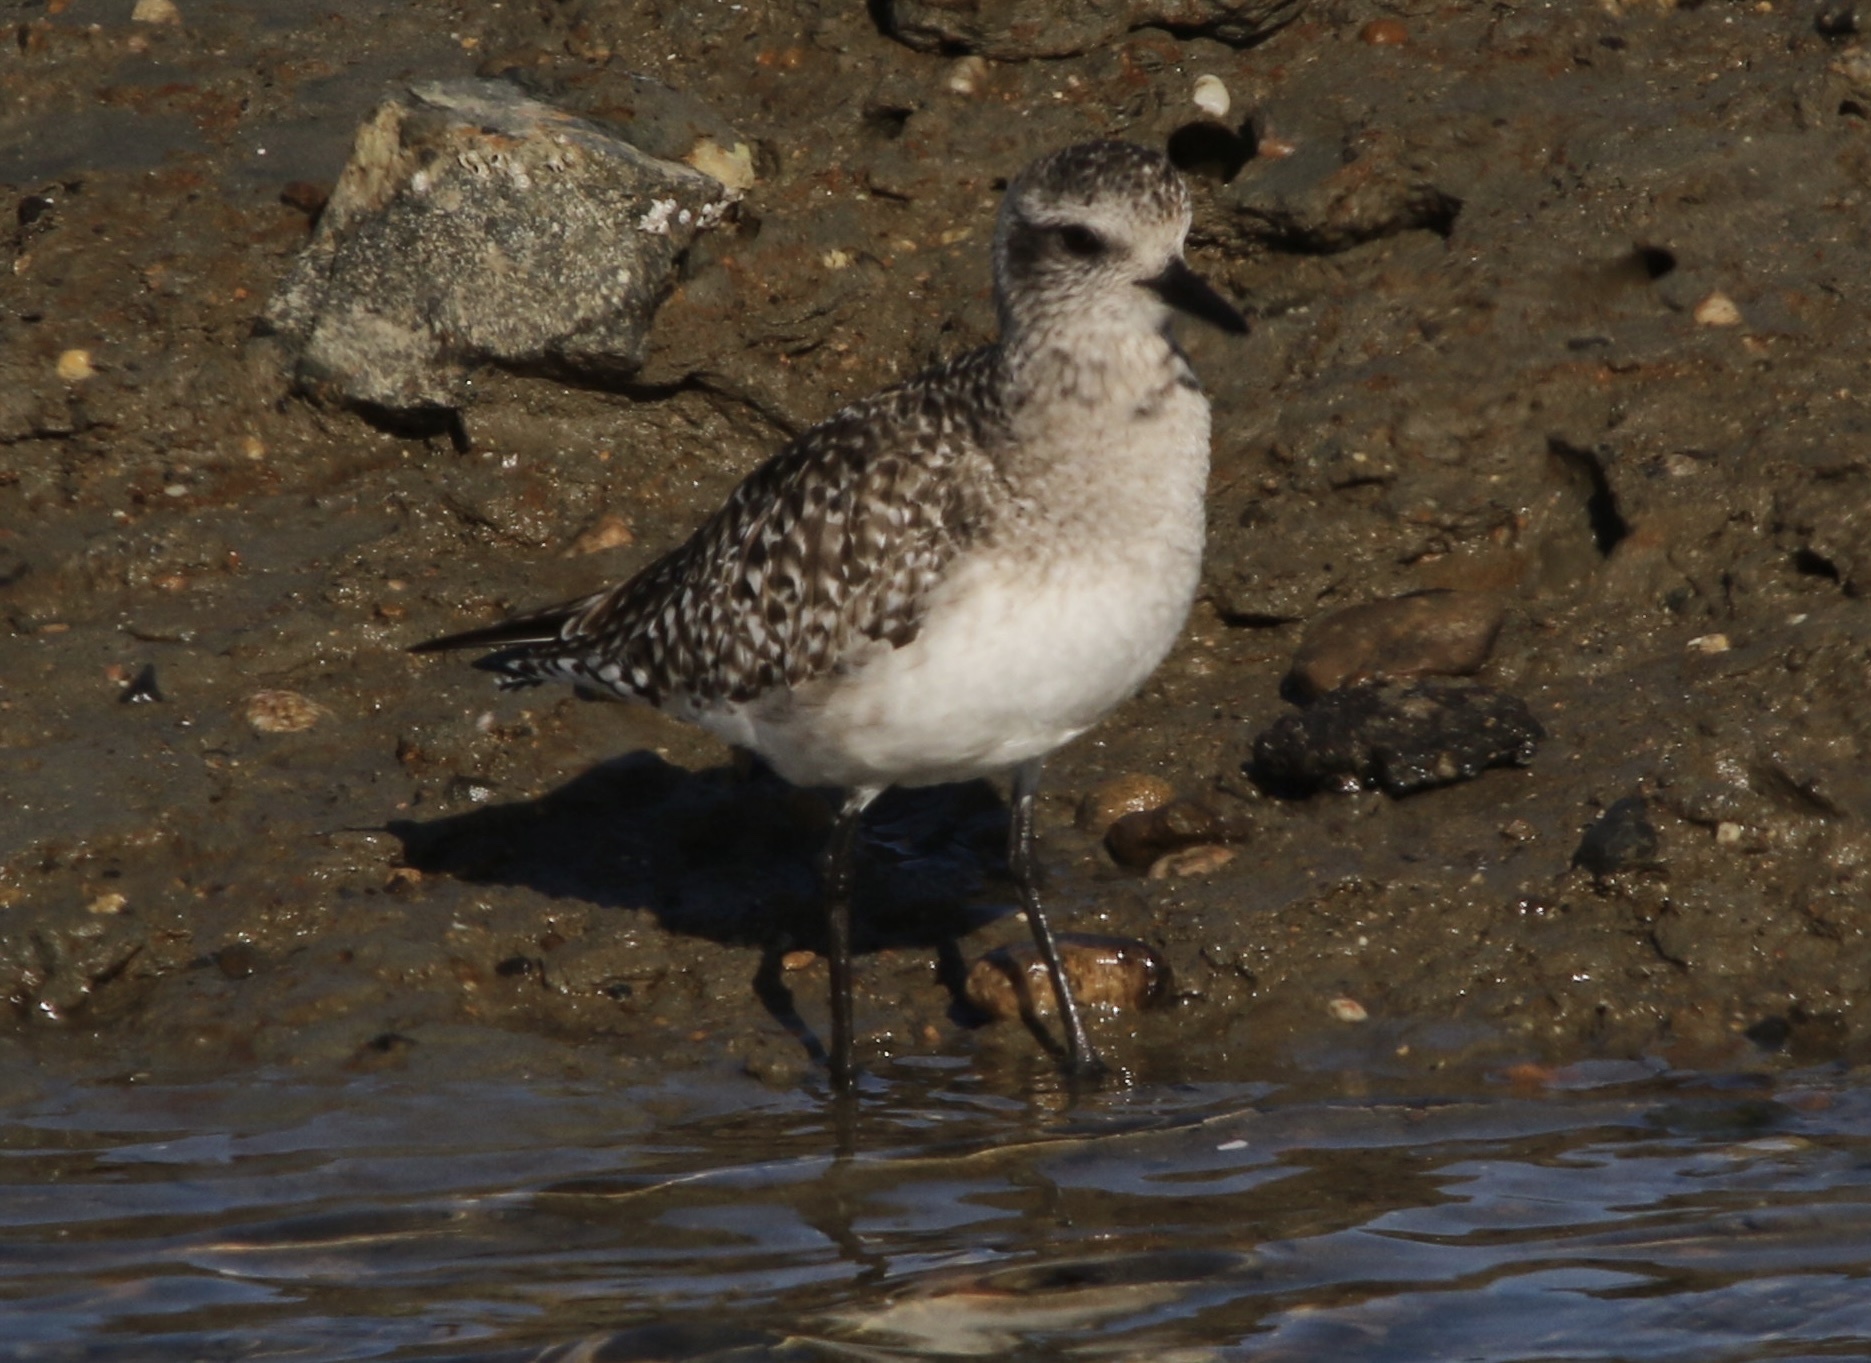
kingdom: Animalia
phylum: Chordata
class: Aves
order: Charadriiformes
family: Charadriidae
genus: Pluvialis
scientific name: Pluvialis squatarola
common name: Grey plover
